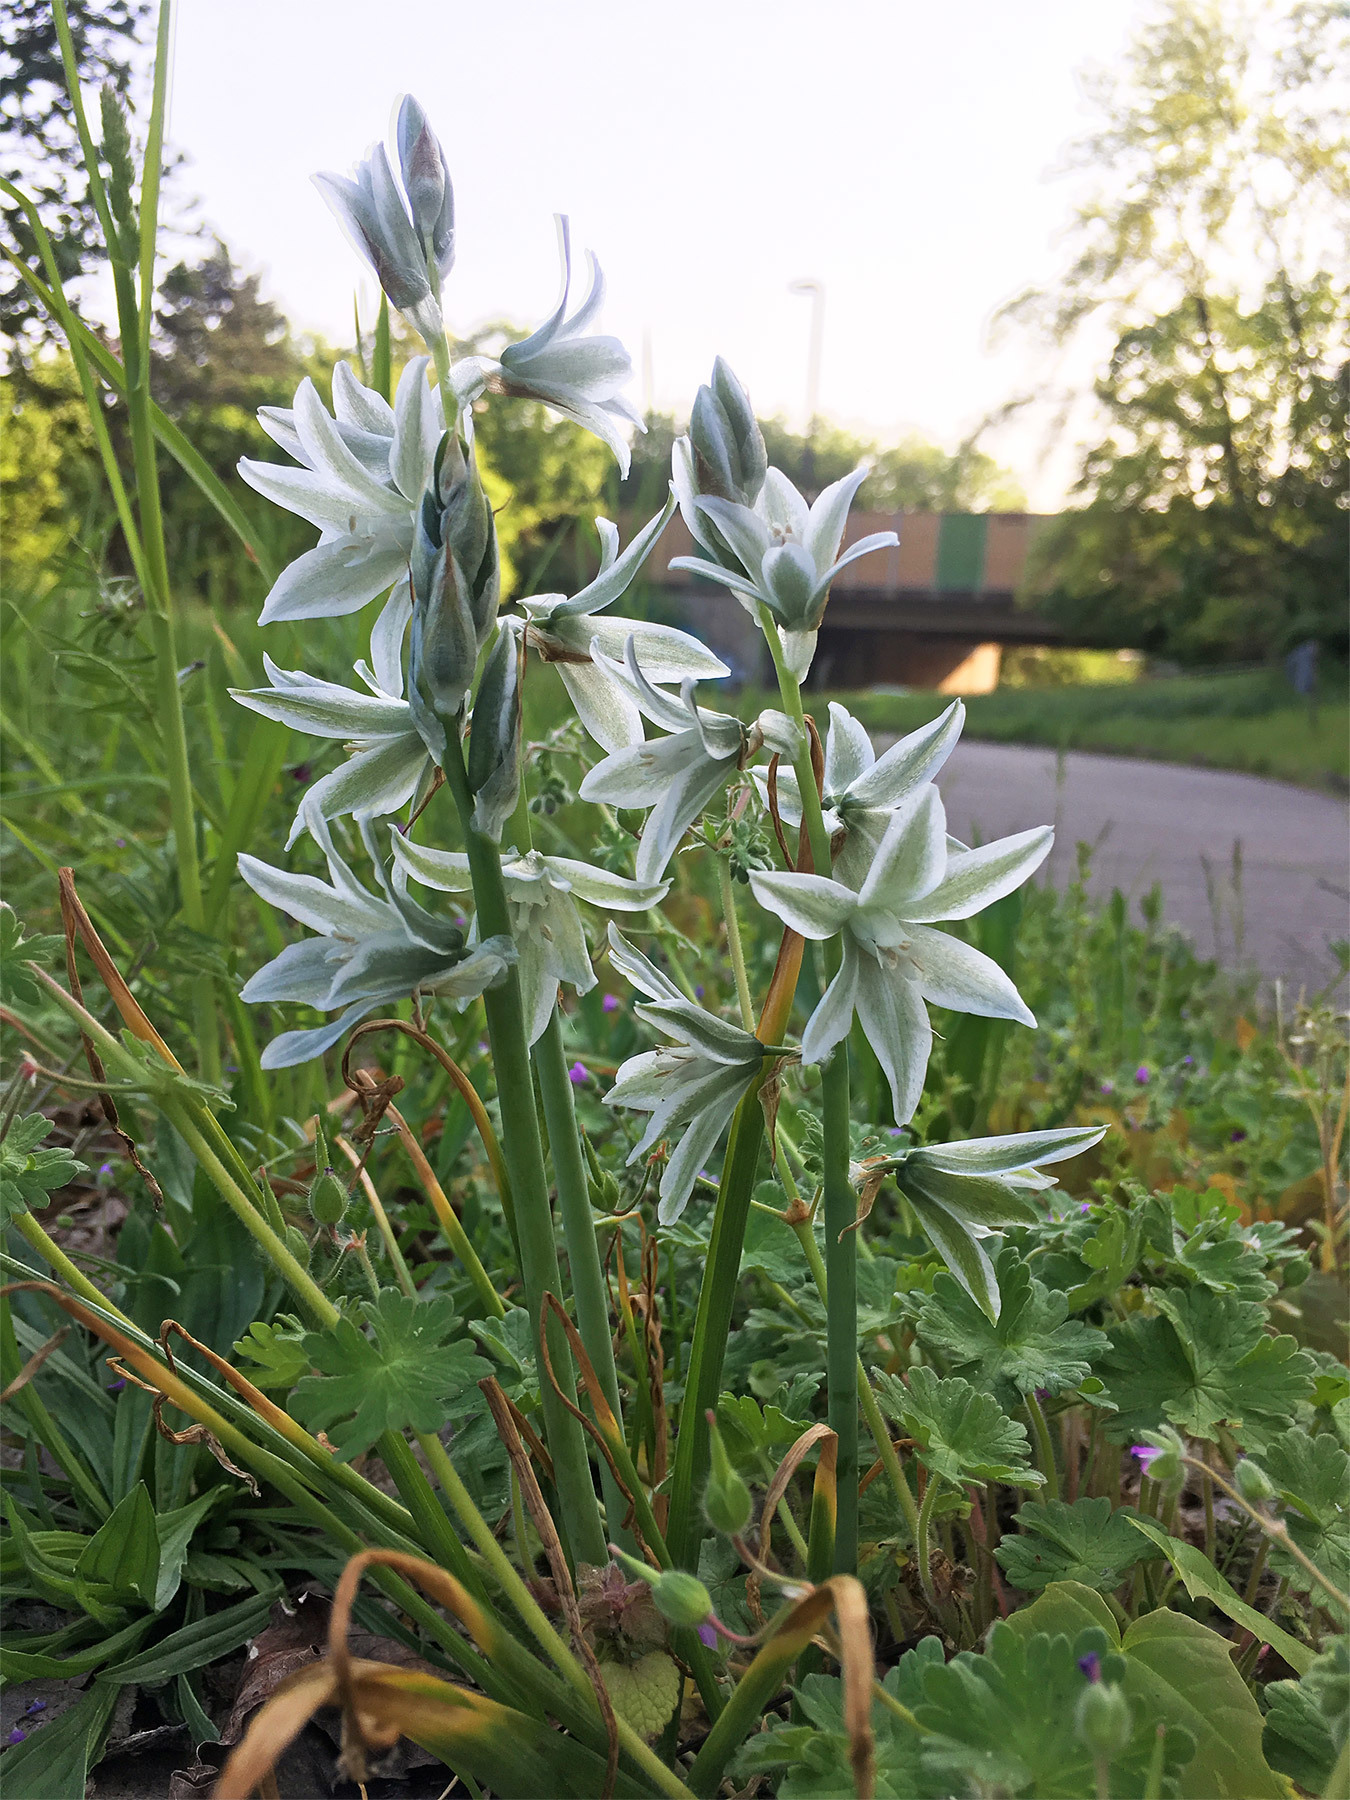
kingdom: Plantae
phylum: Tracheophyta
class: Liliopsida
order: Asparagales
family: Asparagaceae
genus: Ornithogalum
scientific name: Ornithogalum nutans
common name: Drooping star-of-bethlehem
